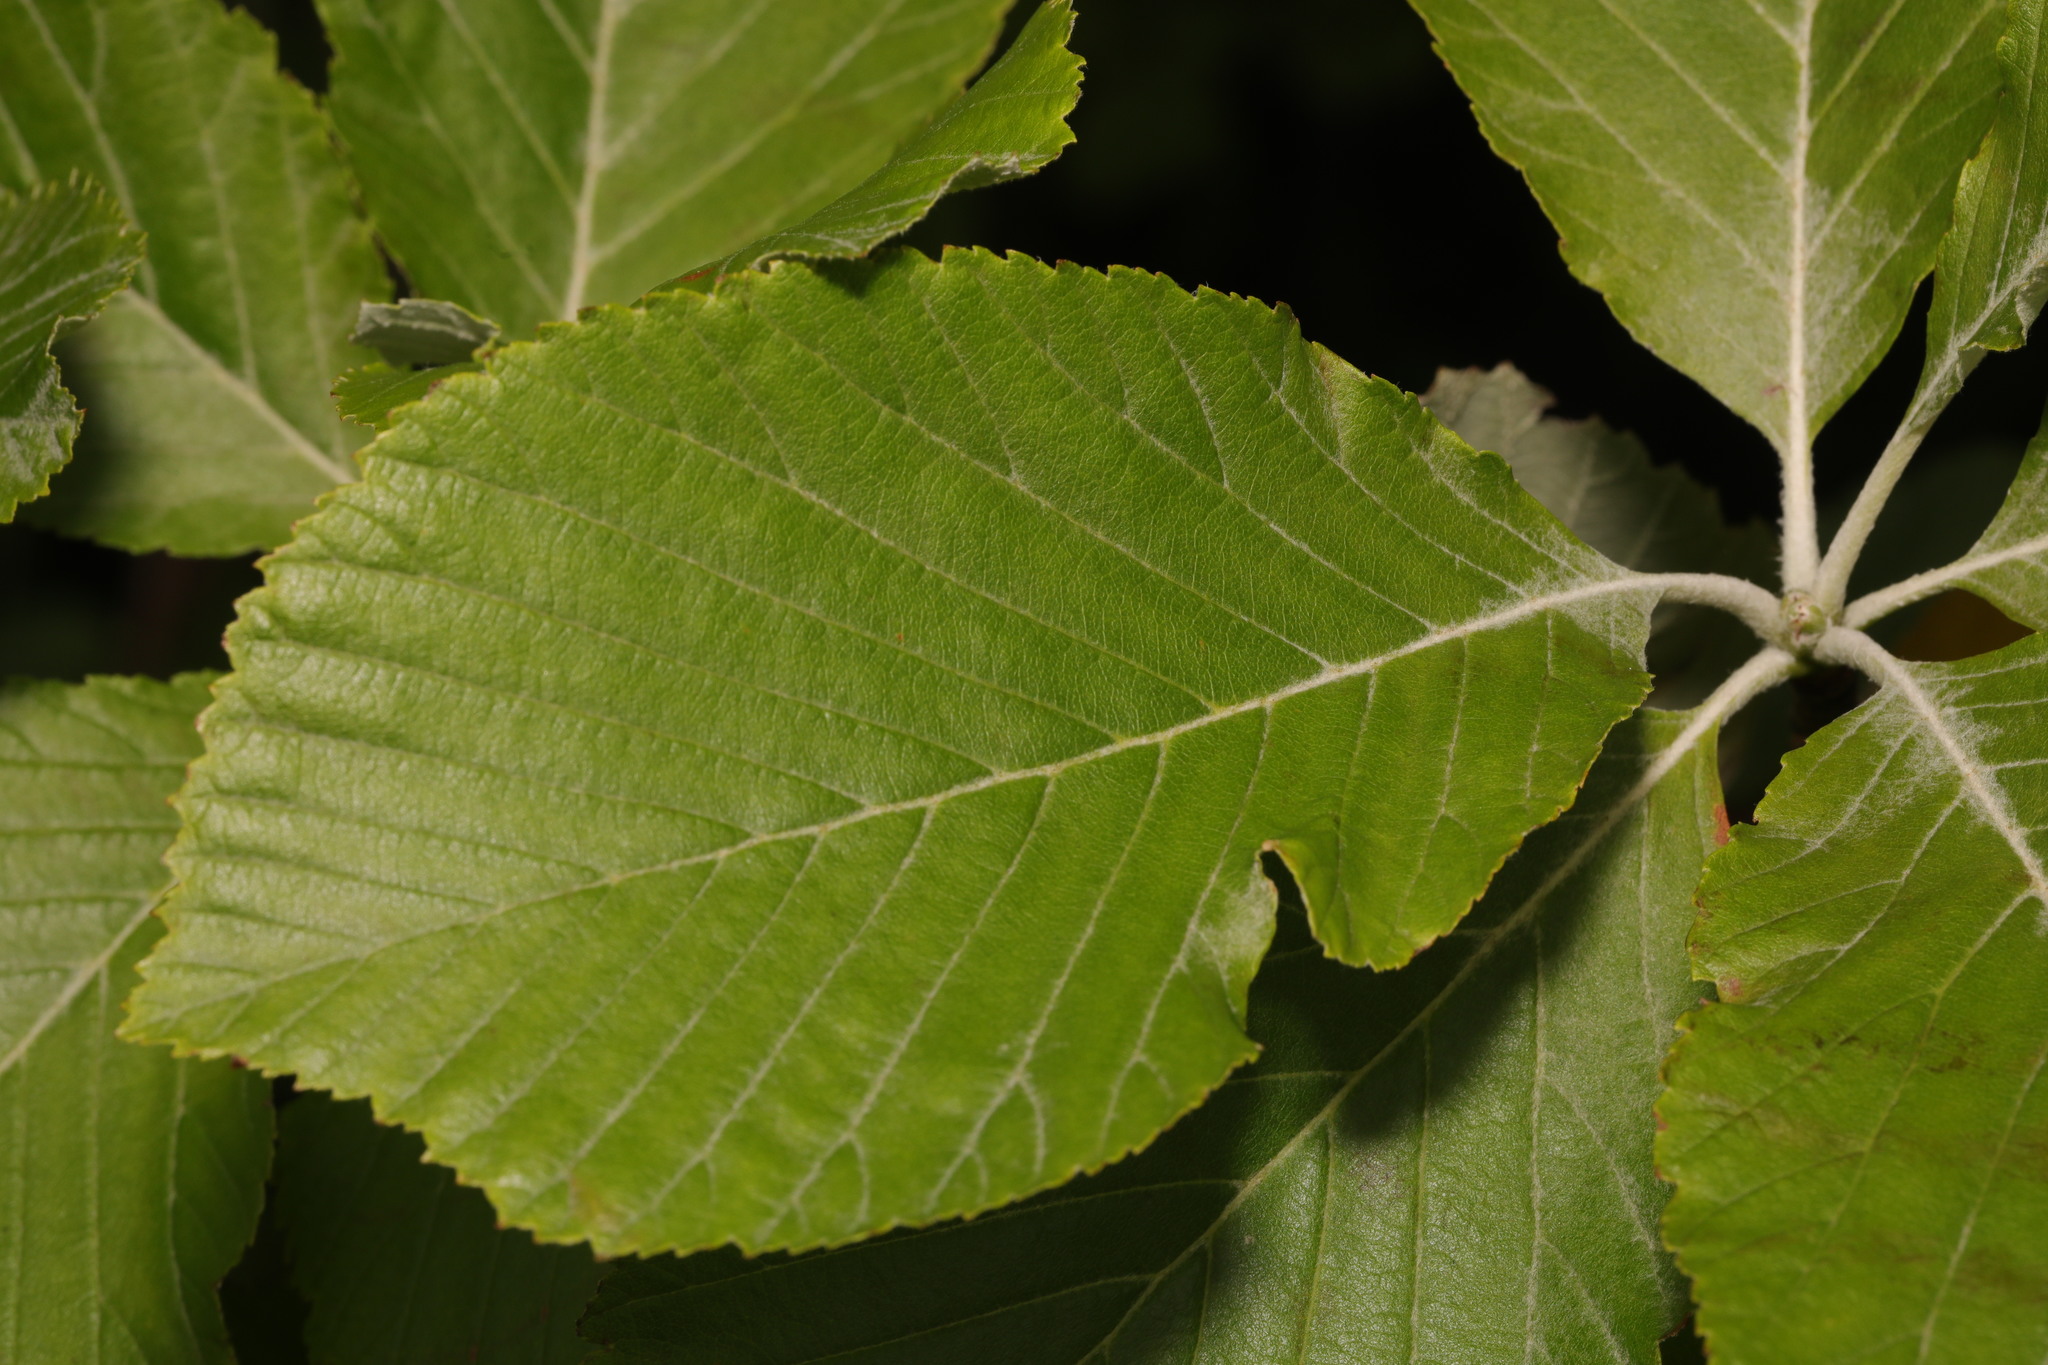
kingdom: Plantae
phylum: Tracheophyta
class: Magnoliopsida
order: Rosales
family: Rosaceae
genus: Aria
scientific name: Aria edulis
